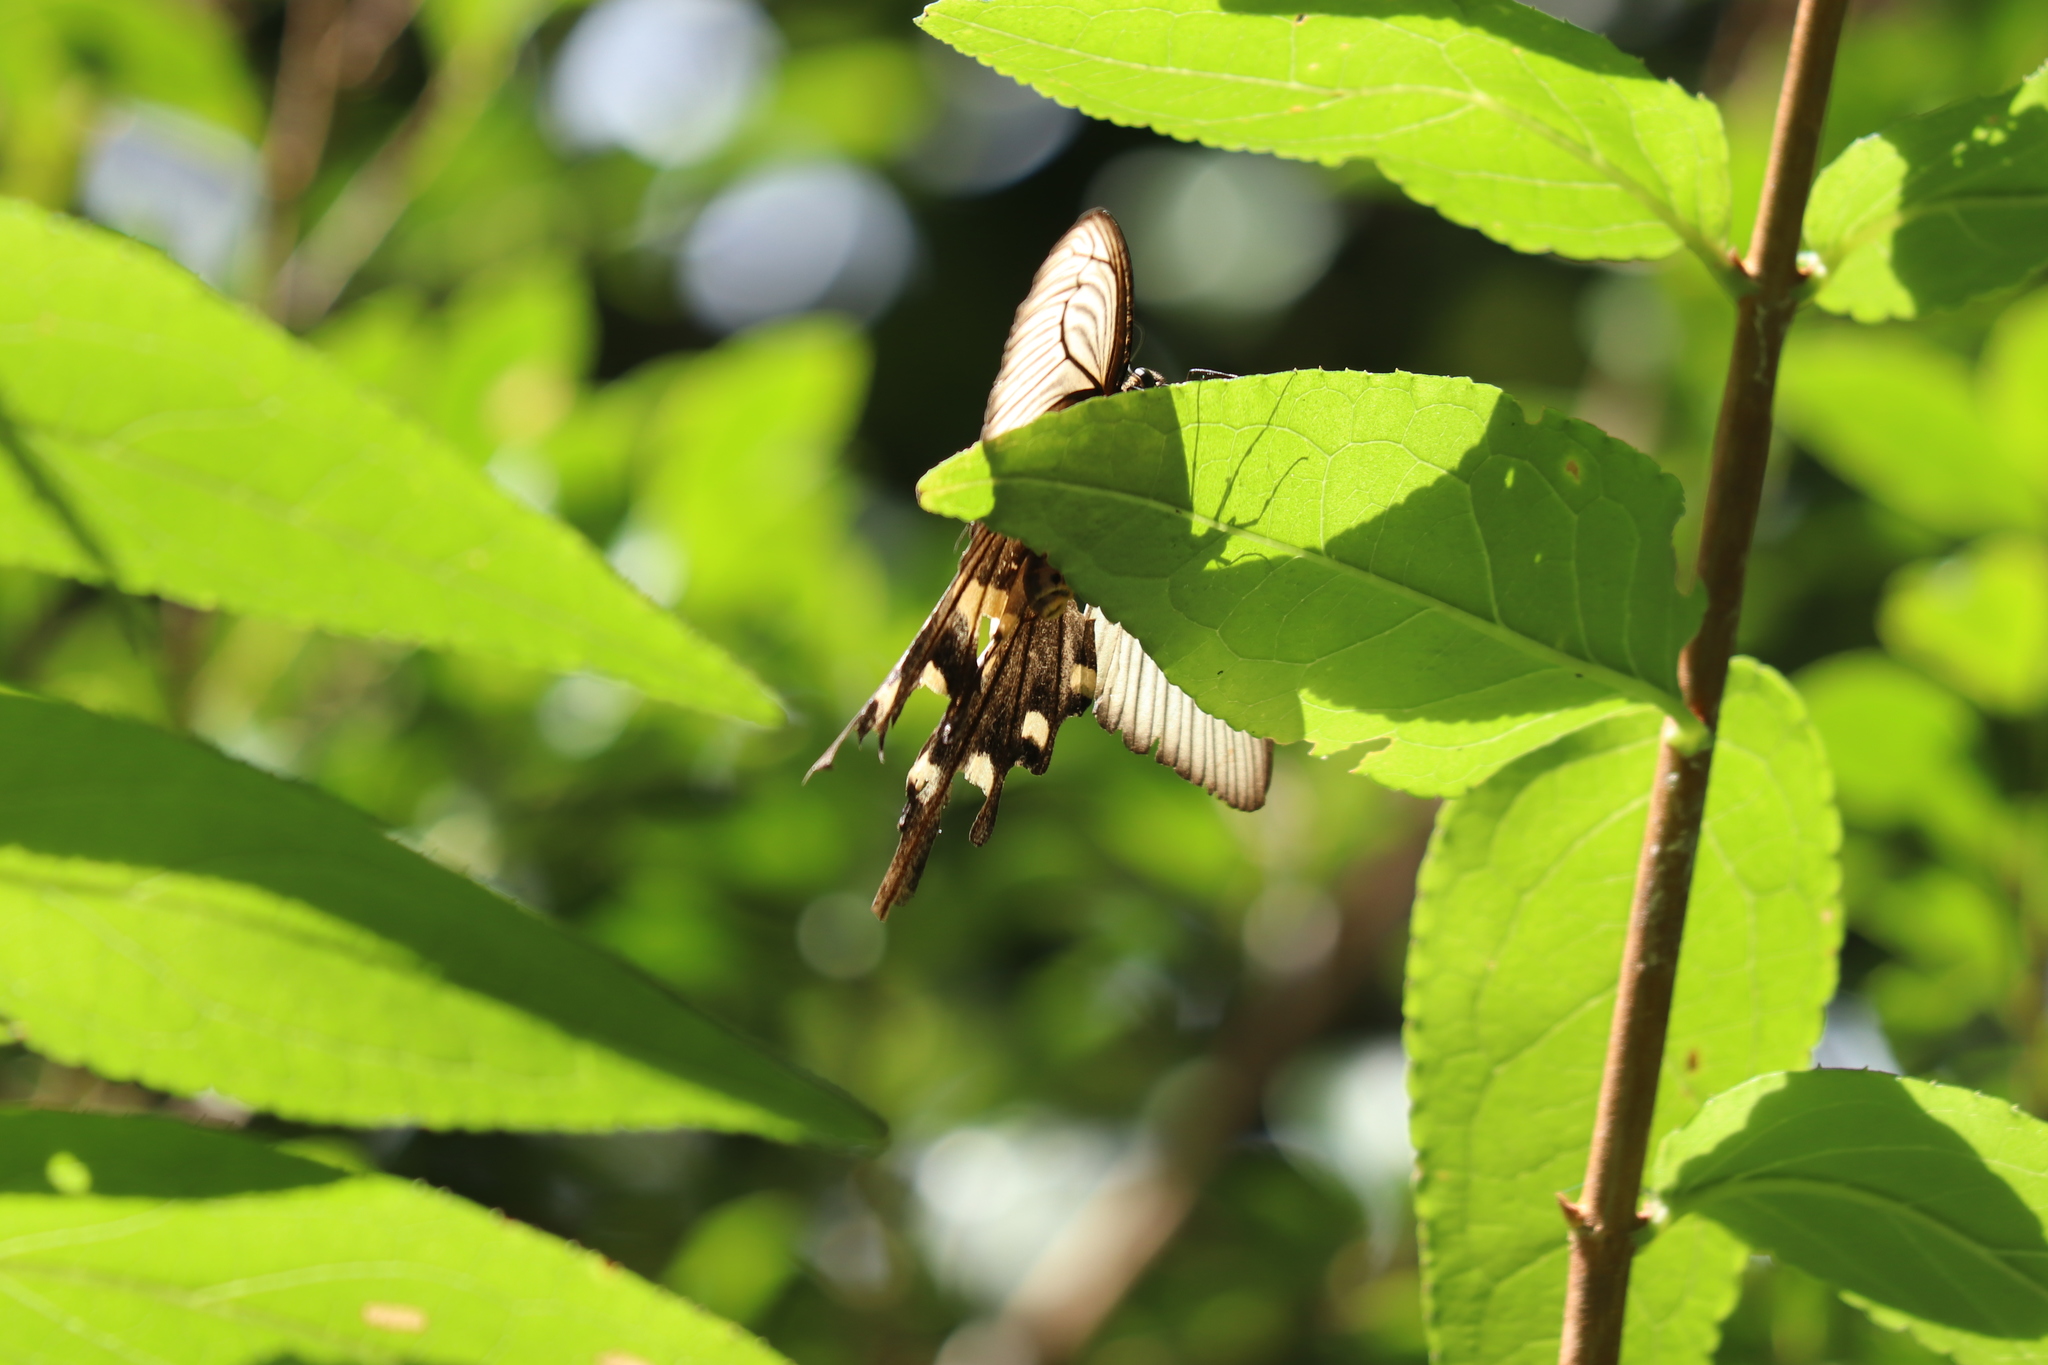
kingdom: Animalia
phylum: Arthropoda
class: Insecta
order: Lepidoptera
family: Papilionidae
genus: Byasa
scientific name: Byasa alcinous
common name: Chinese windmill
